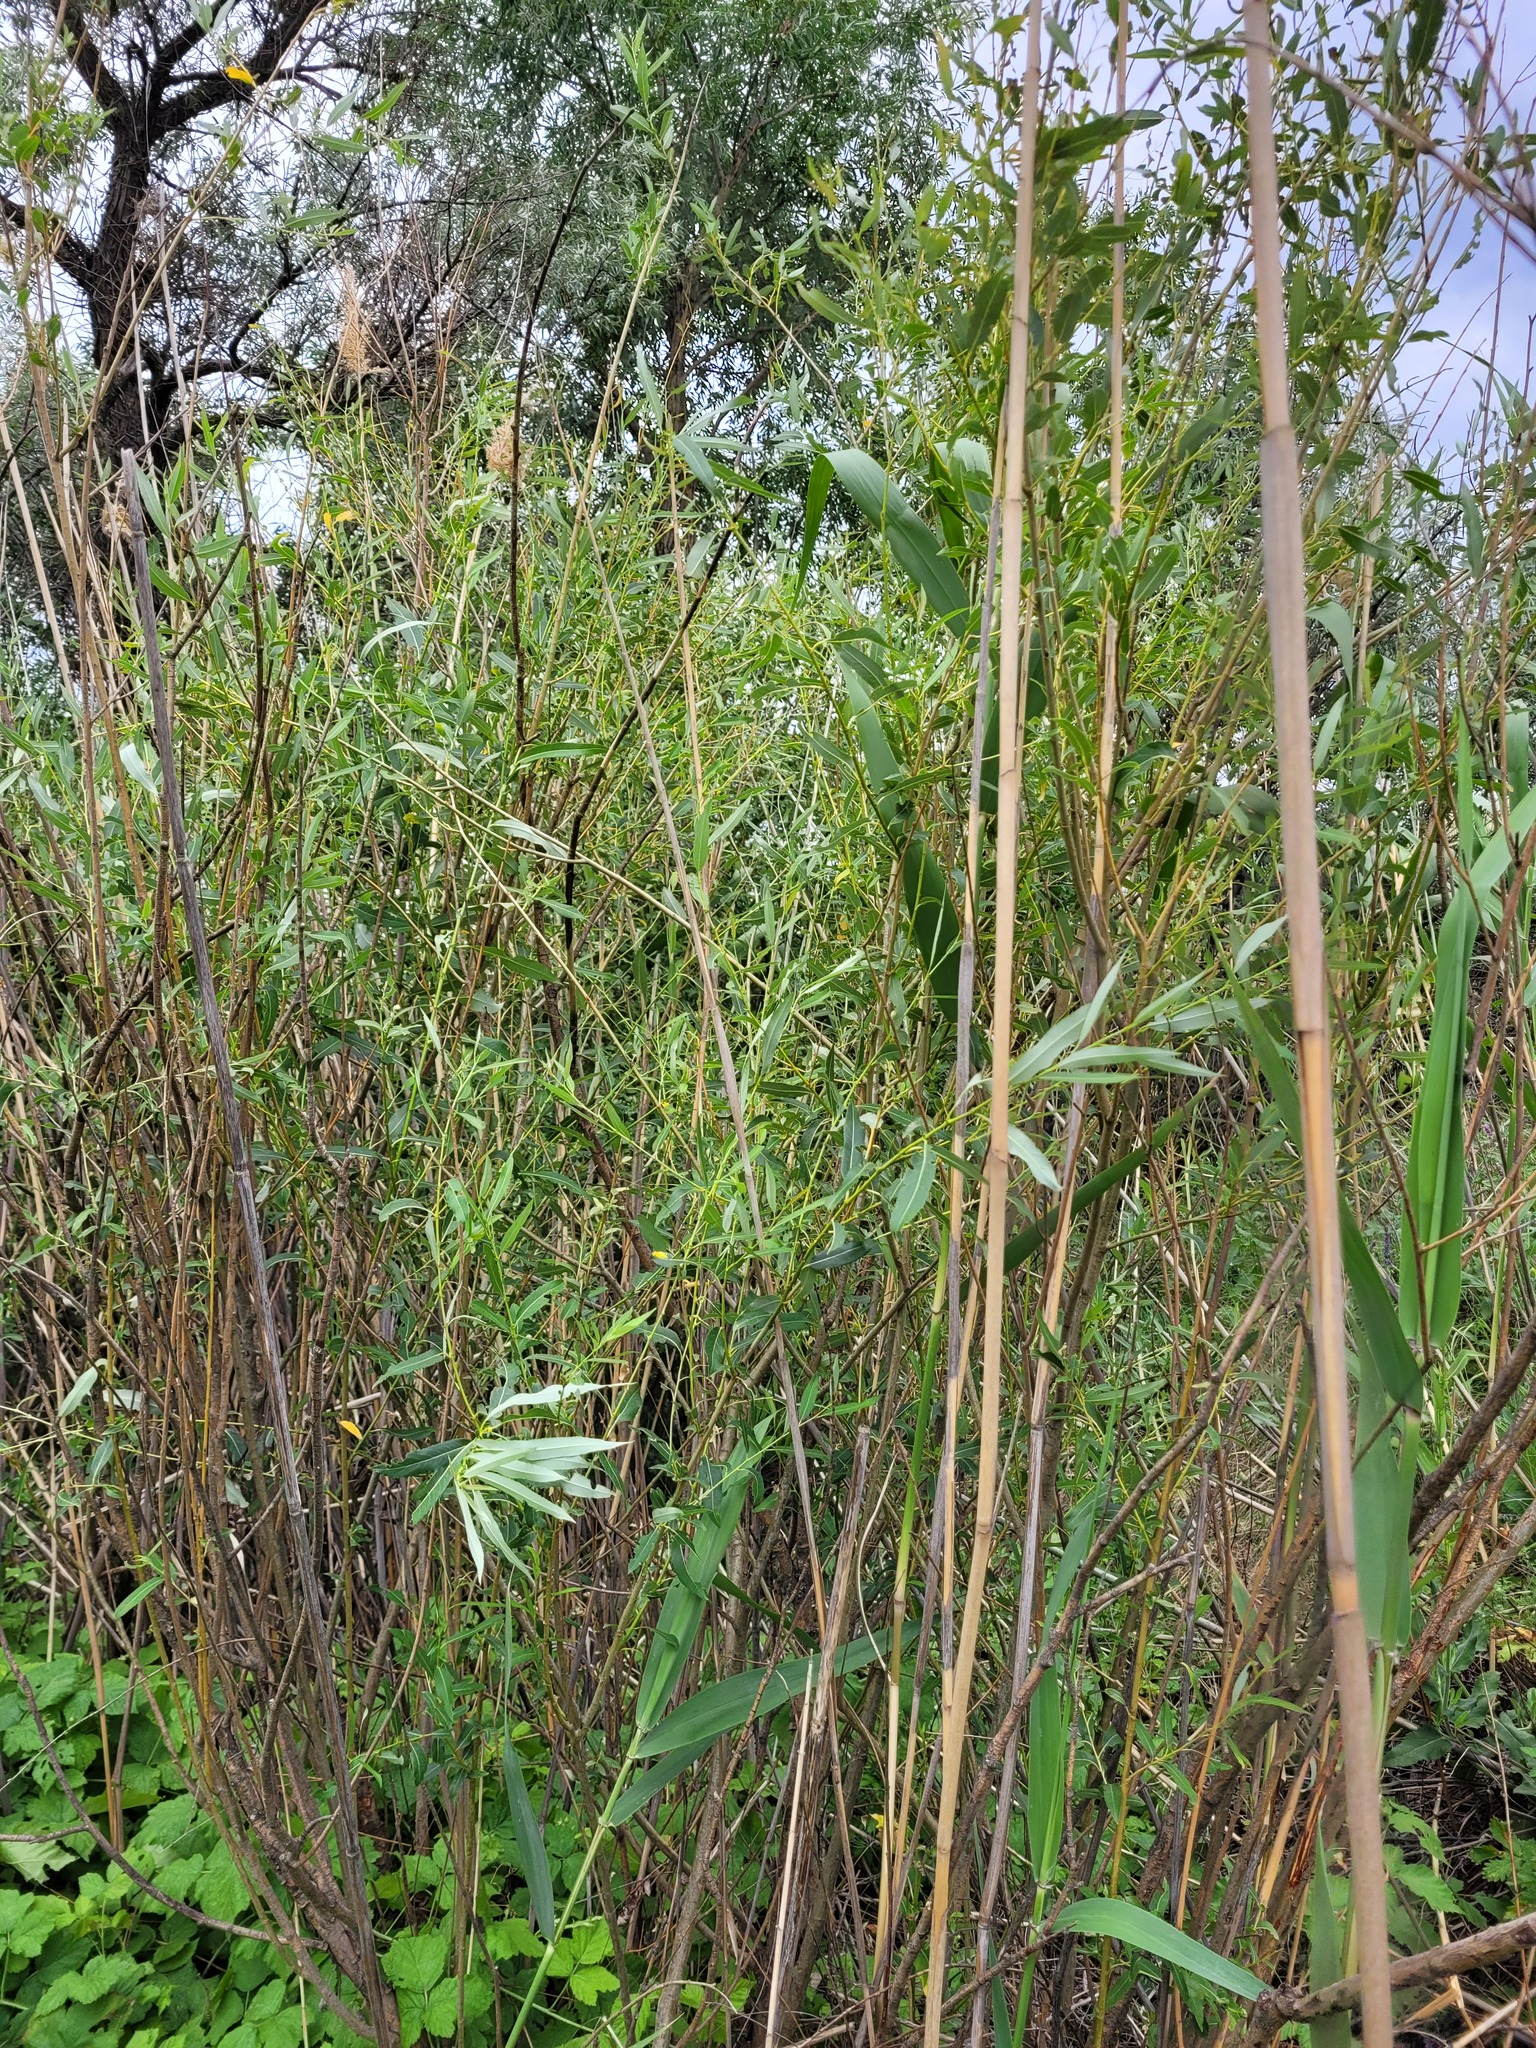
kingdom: Plantae
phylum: Tracheophyta
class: Magnoliopsida
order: Malpighiales
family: Salicaceae
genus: Salix
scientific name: Salix triandra
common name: Almond willow
